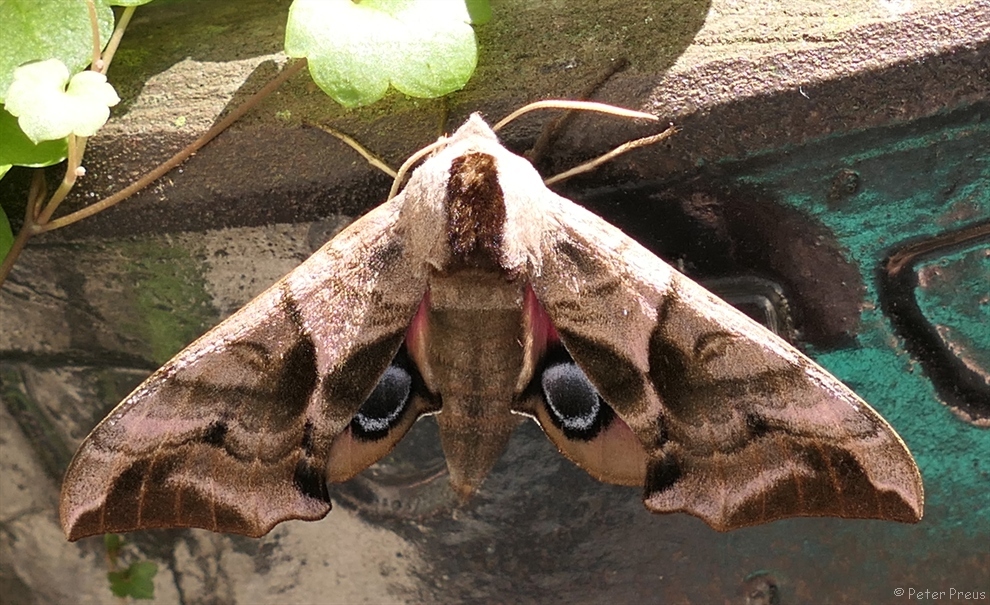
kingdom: Animalia
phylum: Arthropoda
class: Insecta
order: Lepidoptera
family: Sphingidae
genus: Smerinthus
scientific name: Smerinthus ocellata
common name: Eyed hawk-moth
